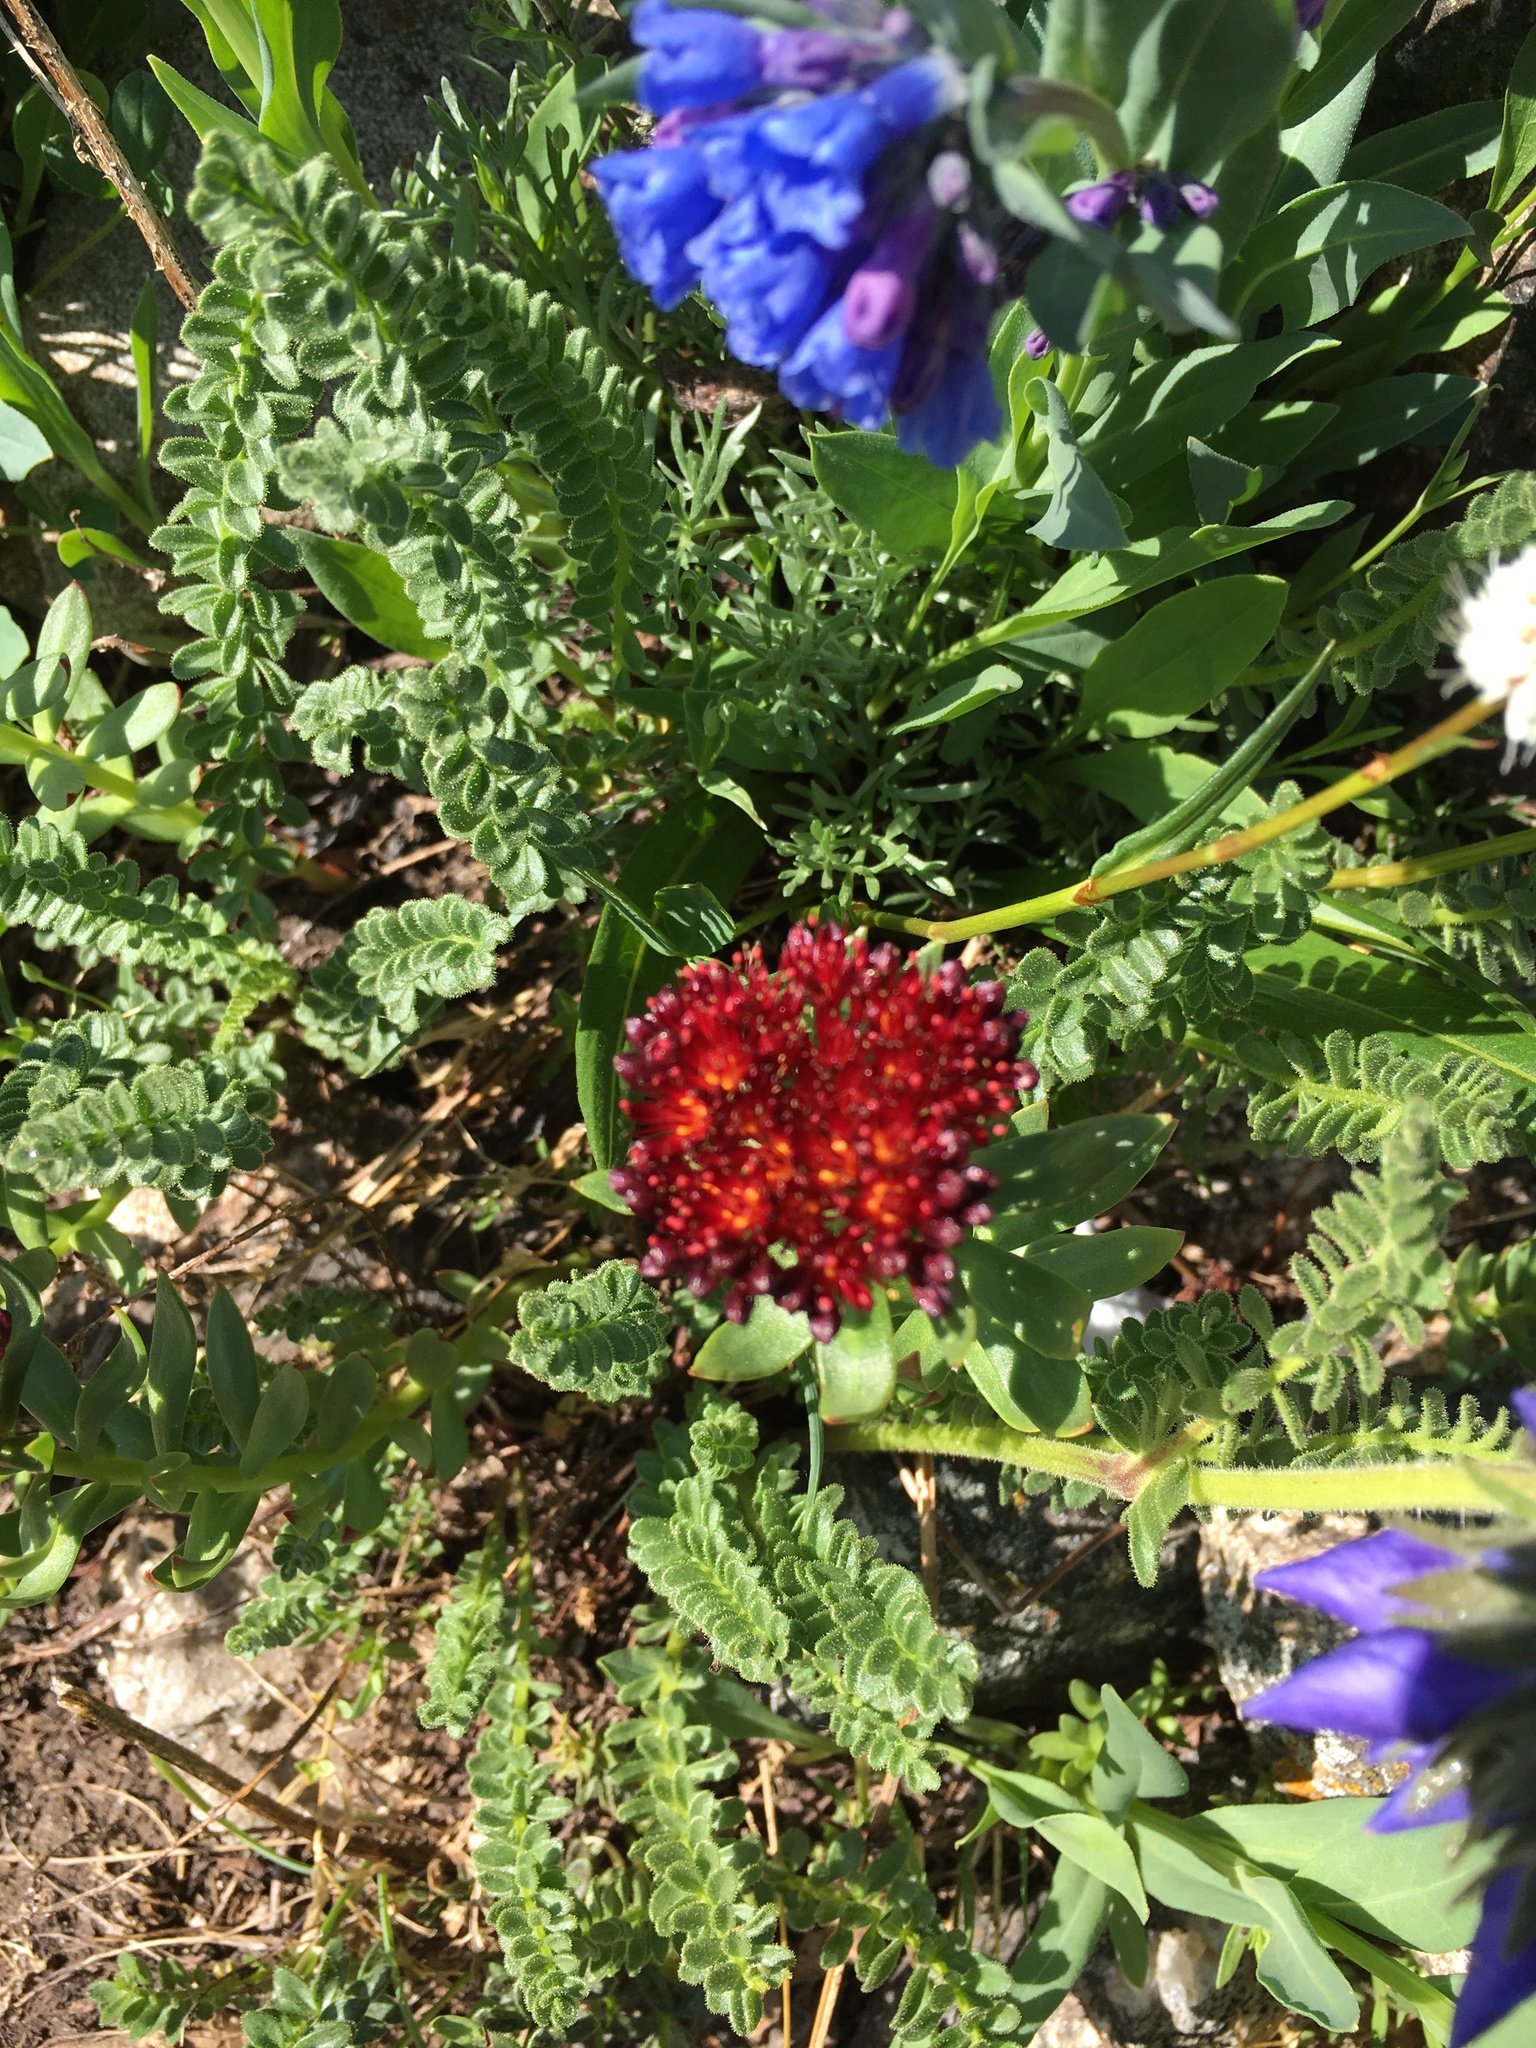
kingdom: Plantae
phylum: Tracheophyta
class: Magnoliopsida
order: Saxifragales
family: Crassulaceae
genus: Rhodiola
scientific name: Rhodiola integrifolia
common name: Western roseroot
